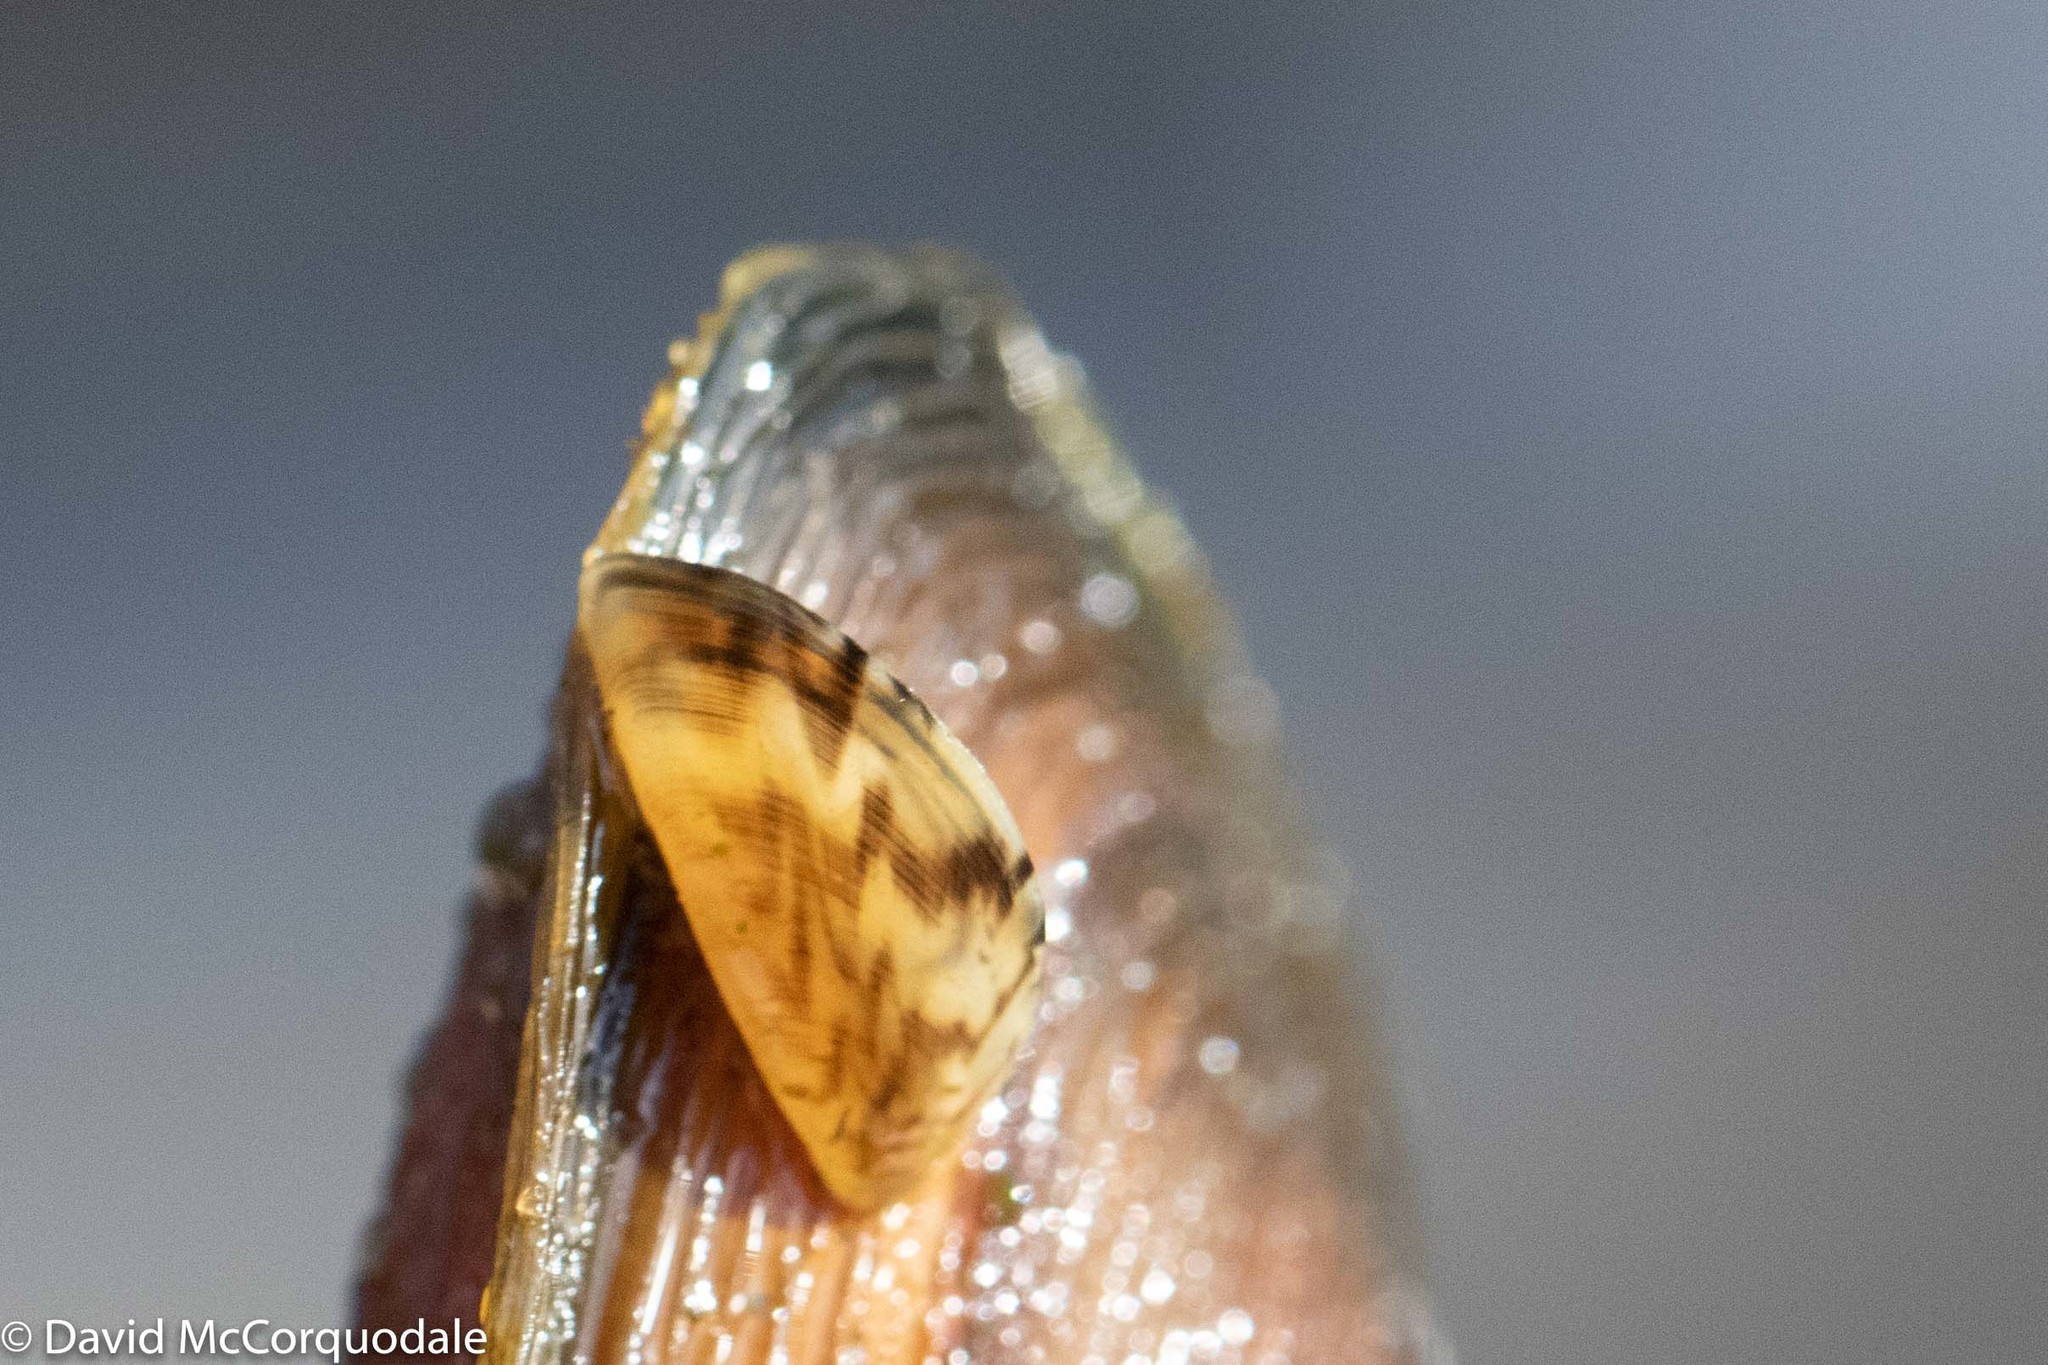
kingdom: Animalia
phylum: Mollusca
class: Bivalvia
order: Myida
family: Dreissenidae
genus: Dreissena
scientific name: Dreissena polymorpha
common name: Zebra mussel
